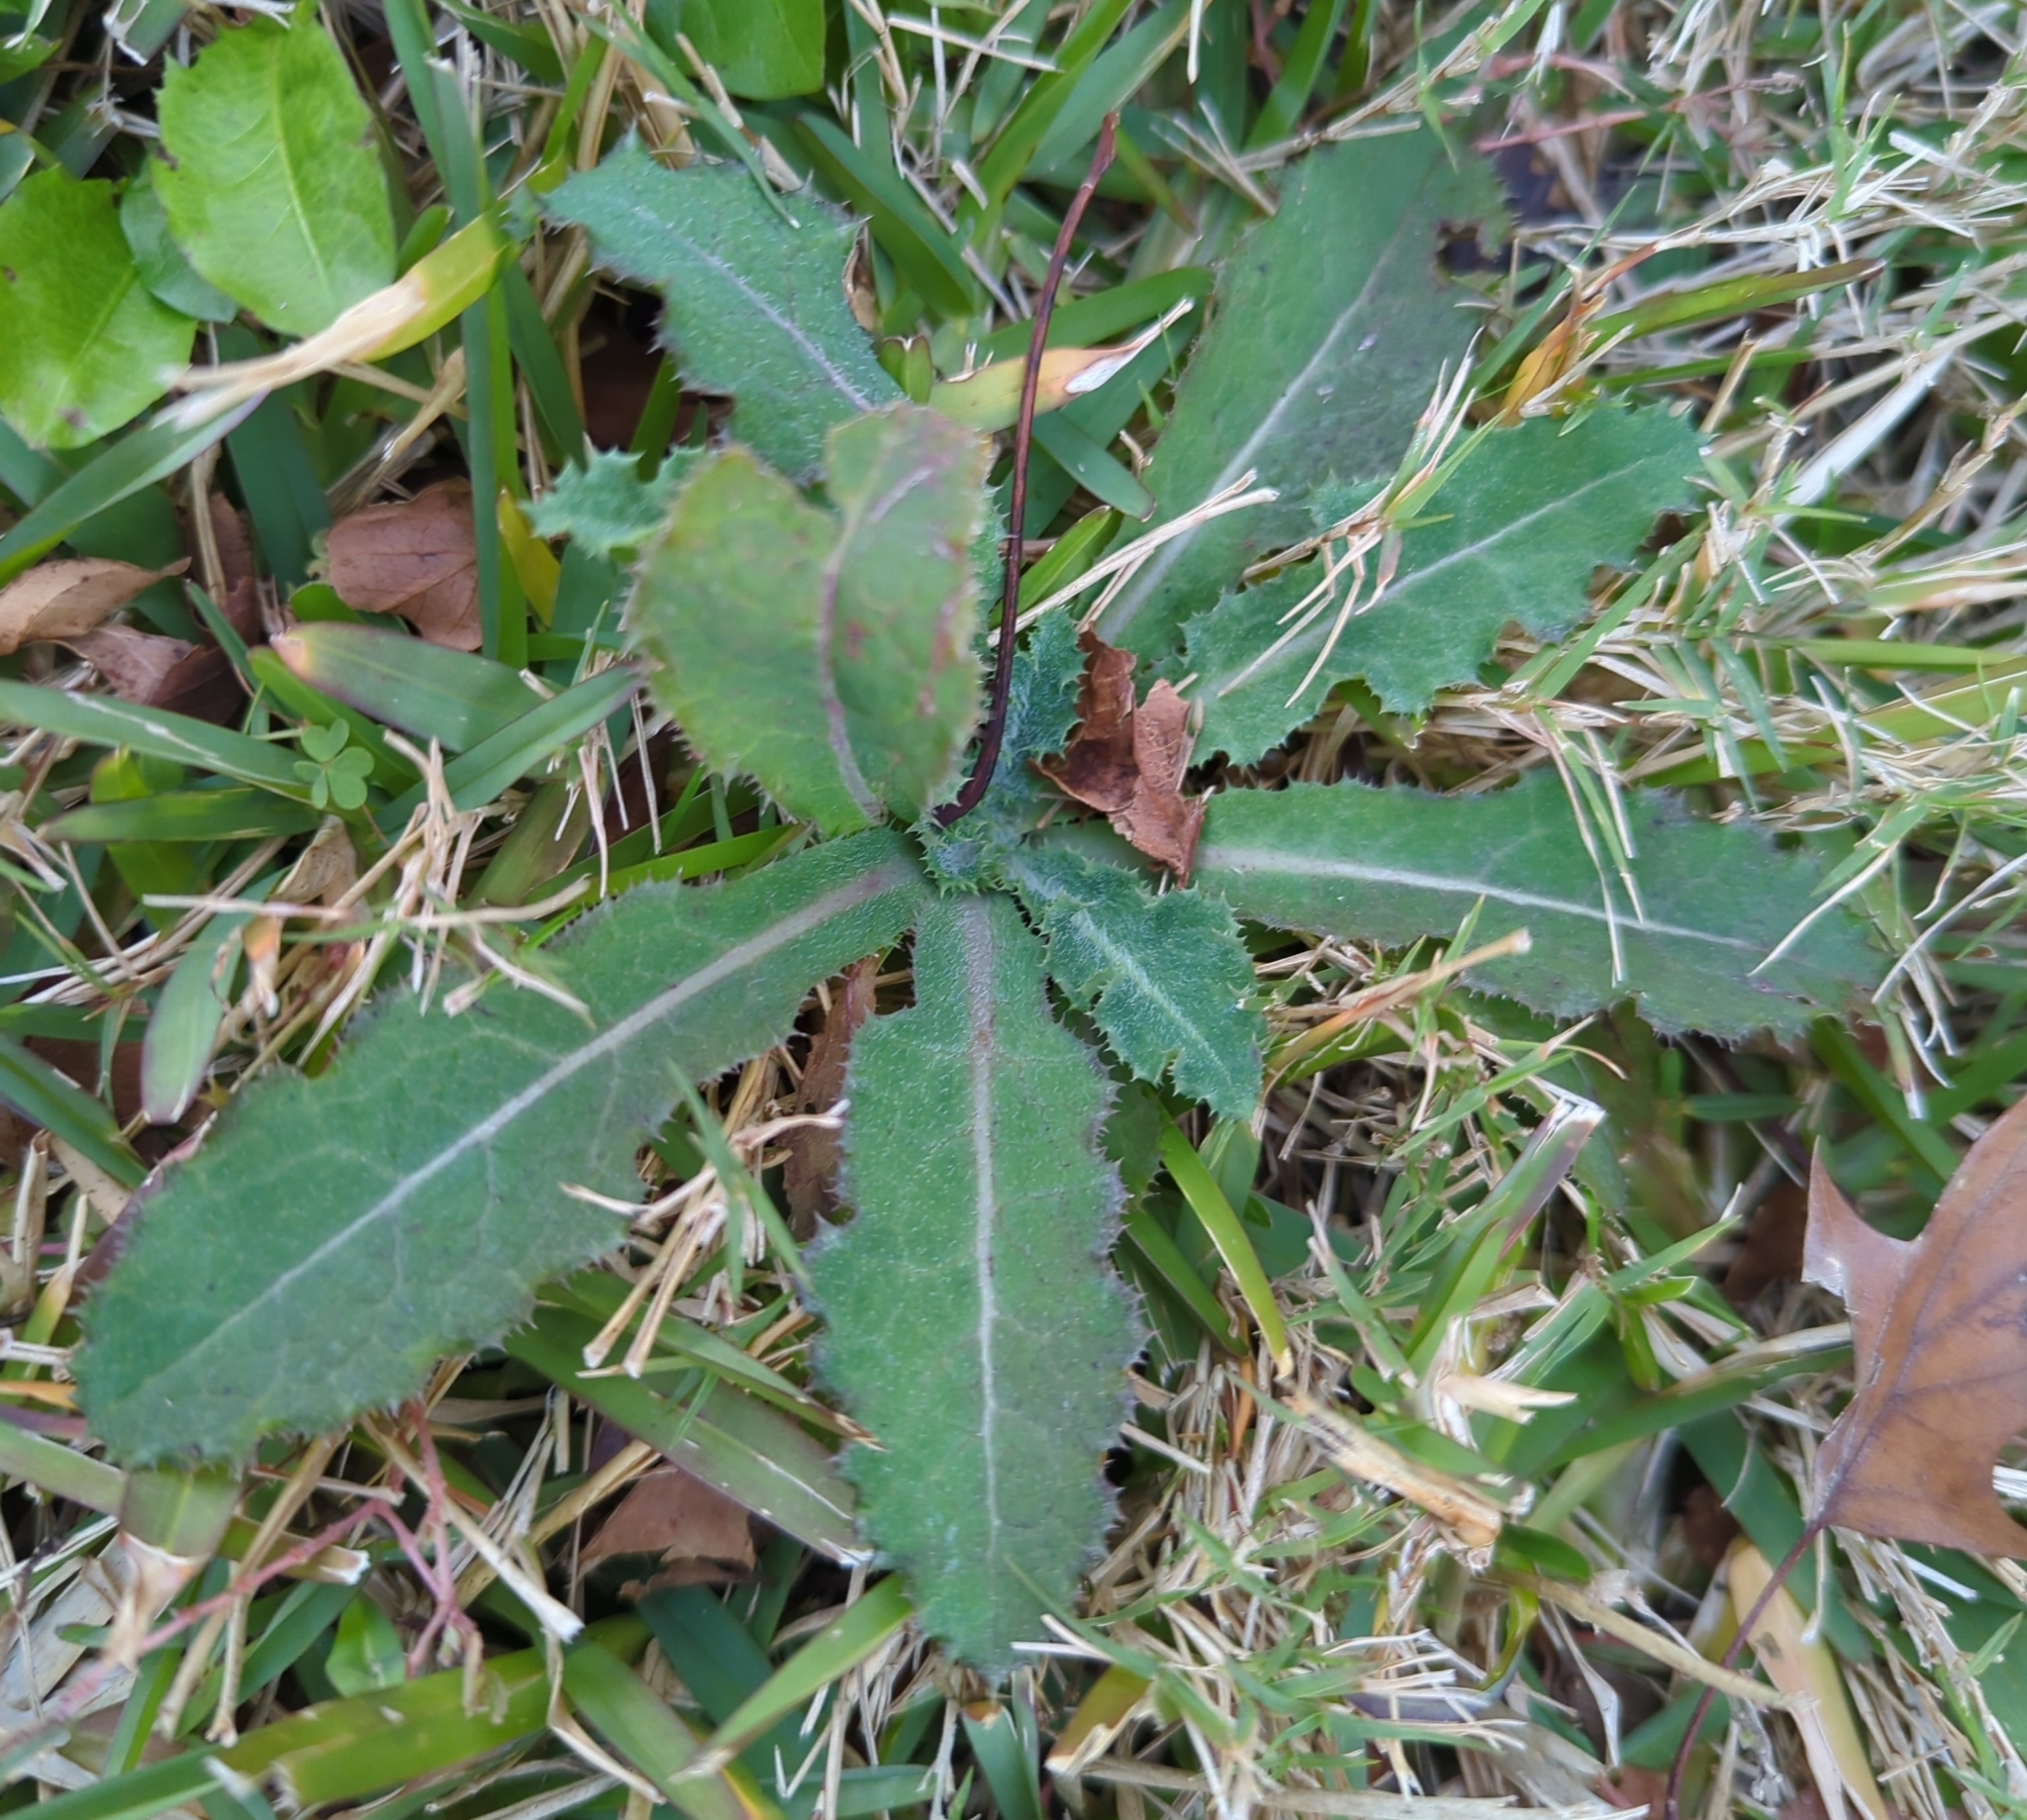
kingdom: Plantae
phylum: Tracheophyta
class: Magnoliopsida
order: Asterales
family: Asteraceae
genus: Sonchus
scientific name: Sonchus asper
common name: Prickly sow-thistle
